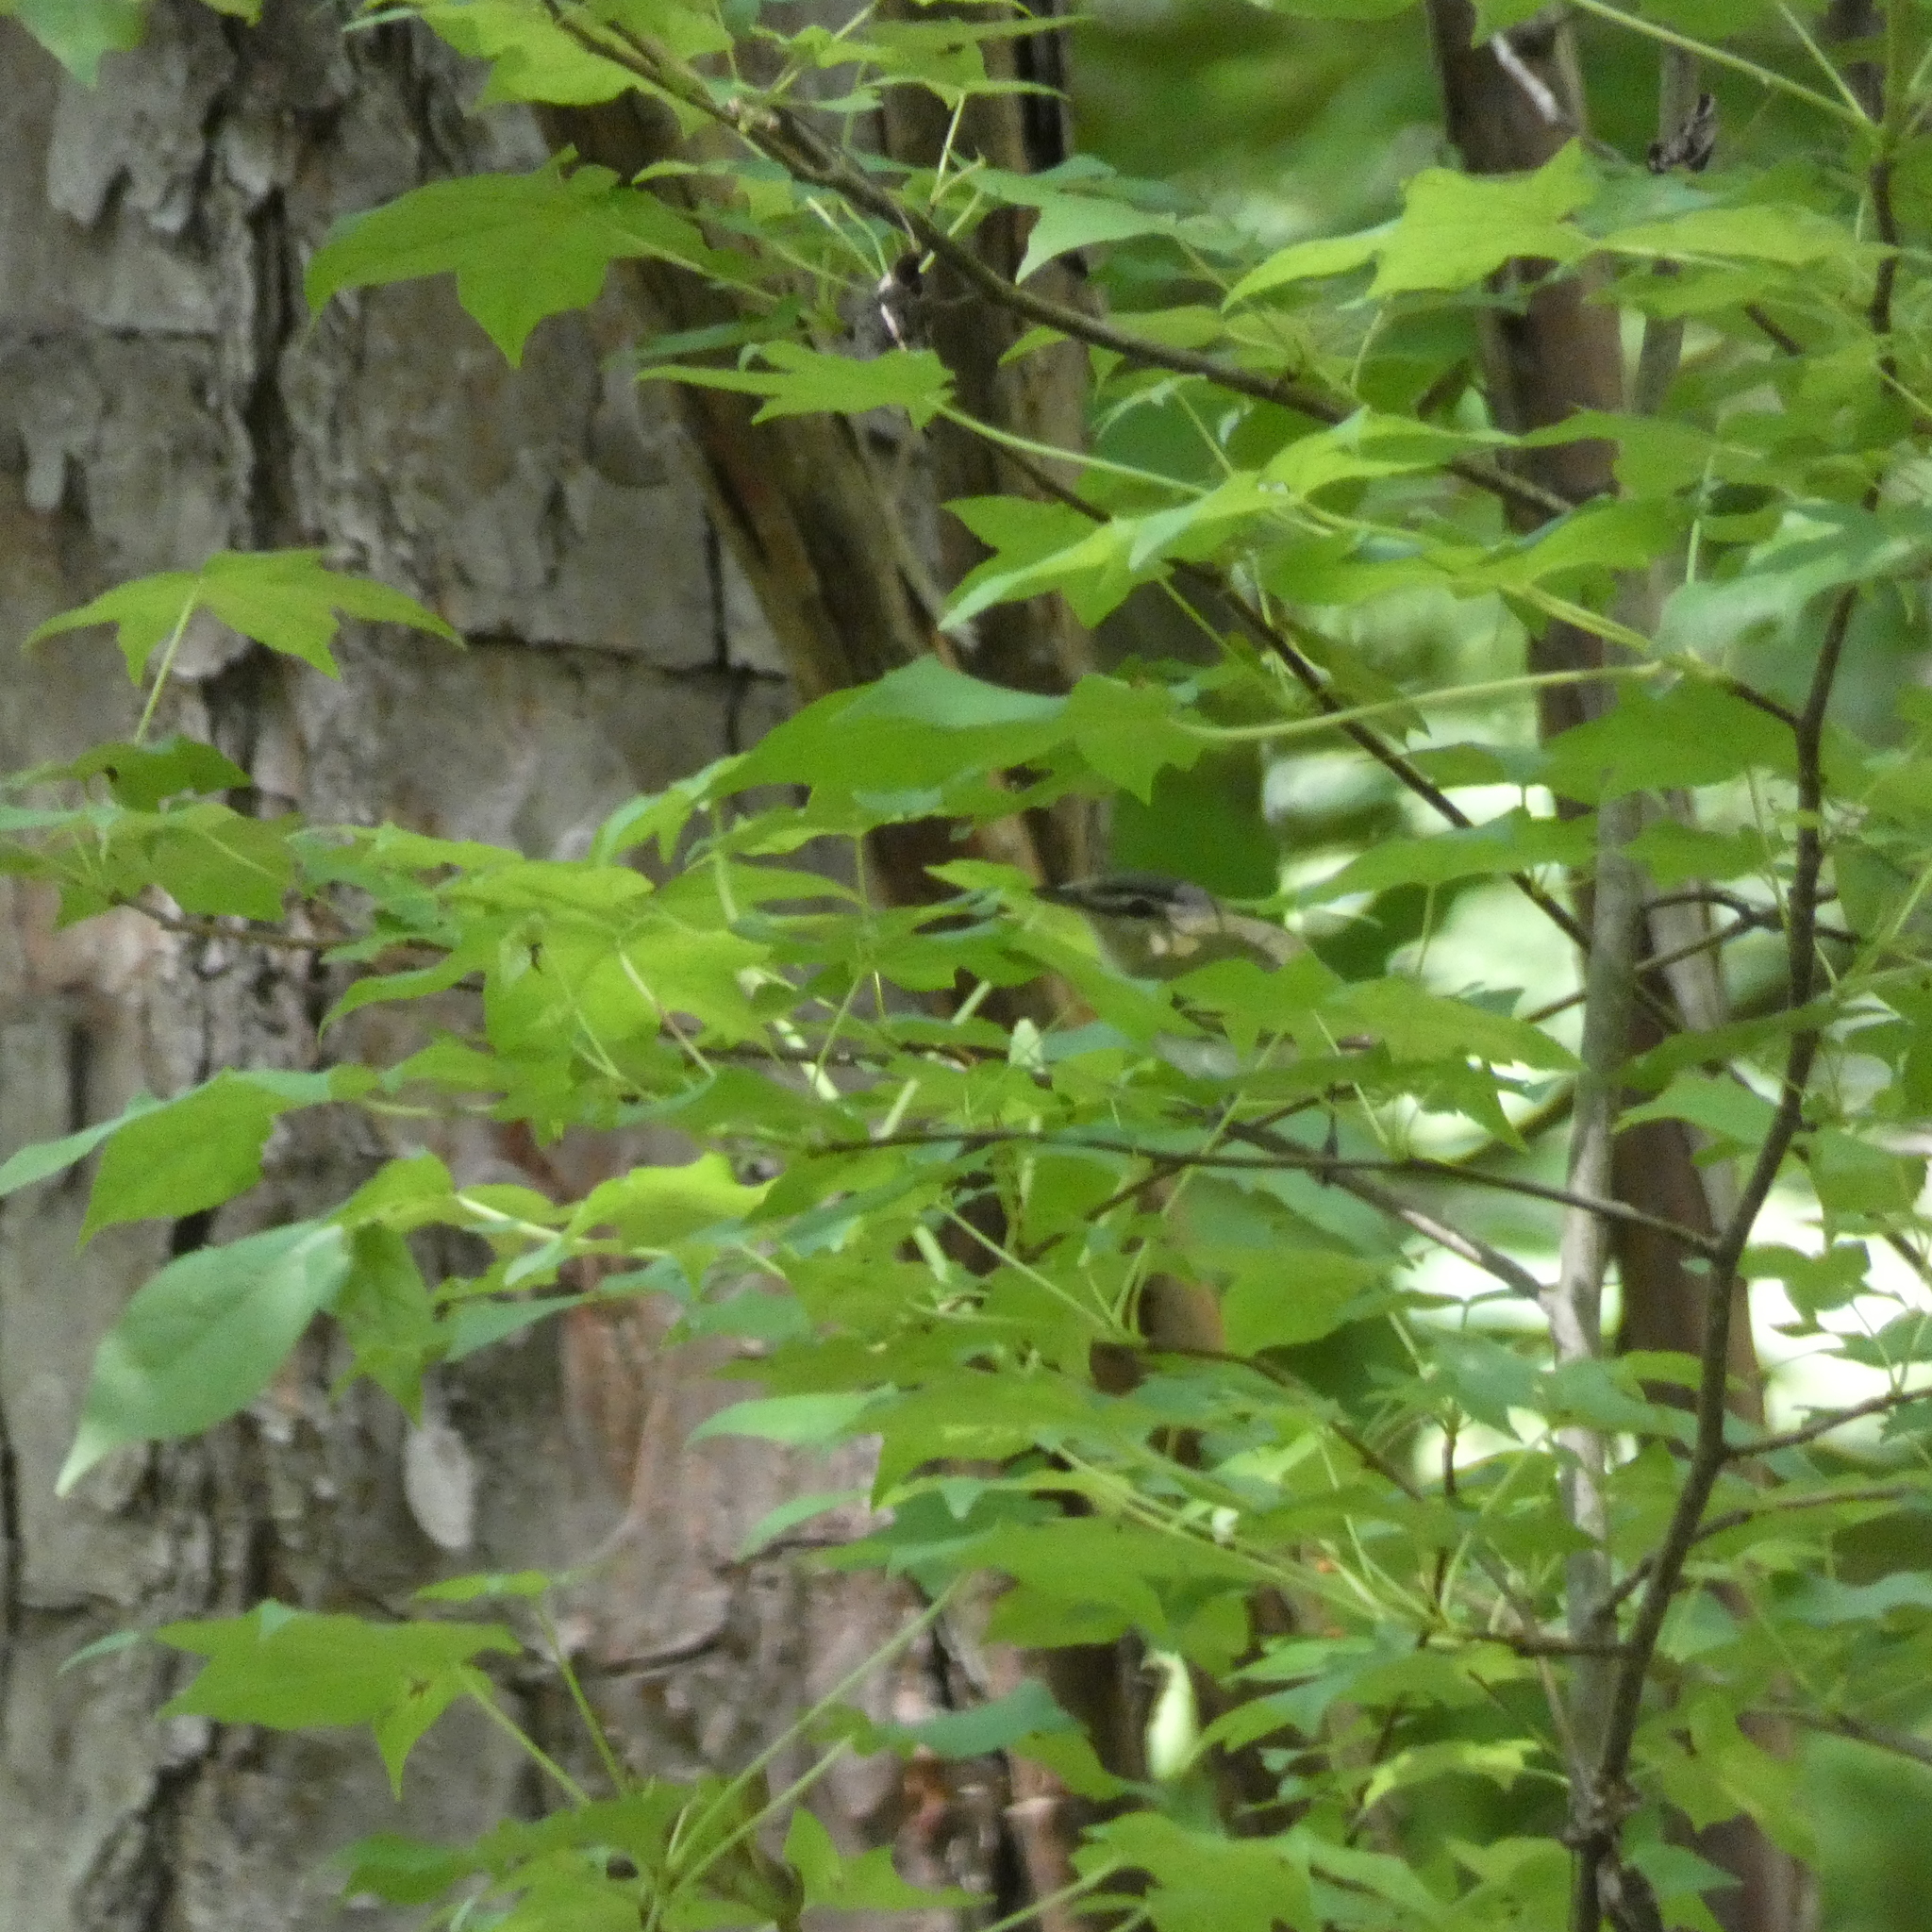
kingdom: Animalia
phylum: Chordata
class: Aves
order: Passeriformes
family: Vireonidae
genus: Vireo
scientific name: Vireo olivaceus
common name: Red-eyed vireo
